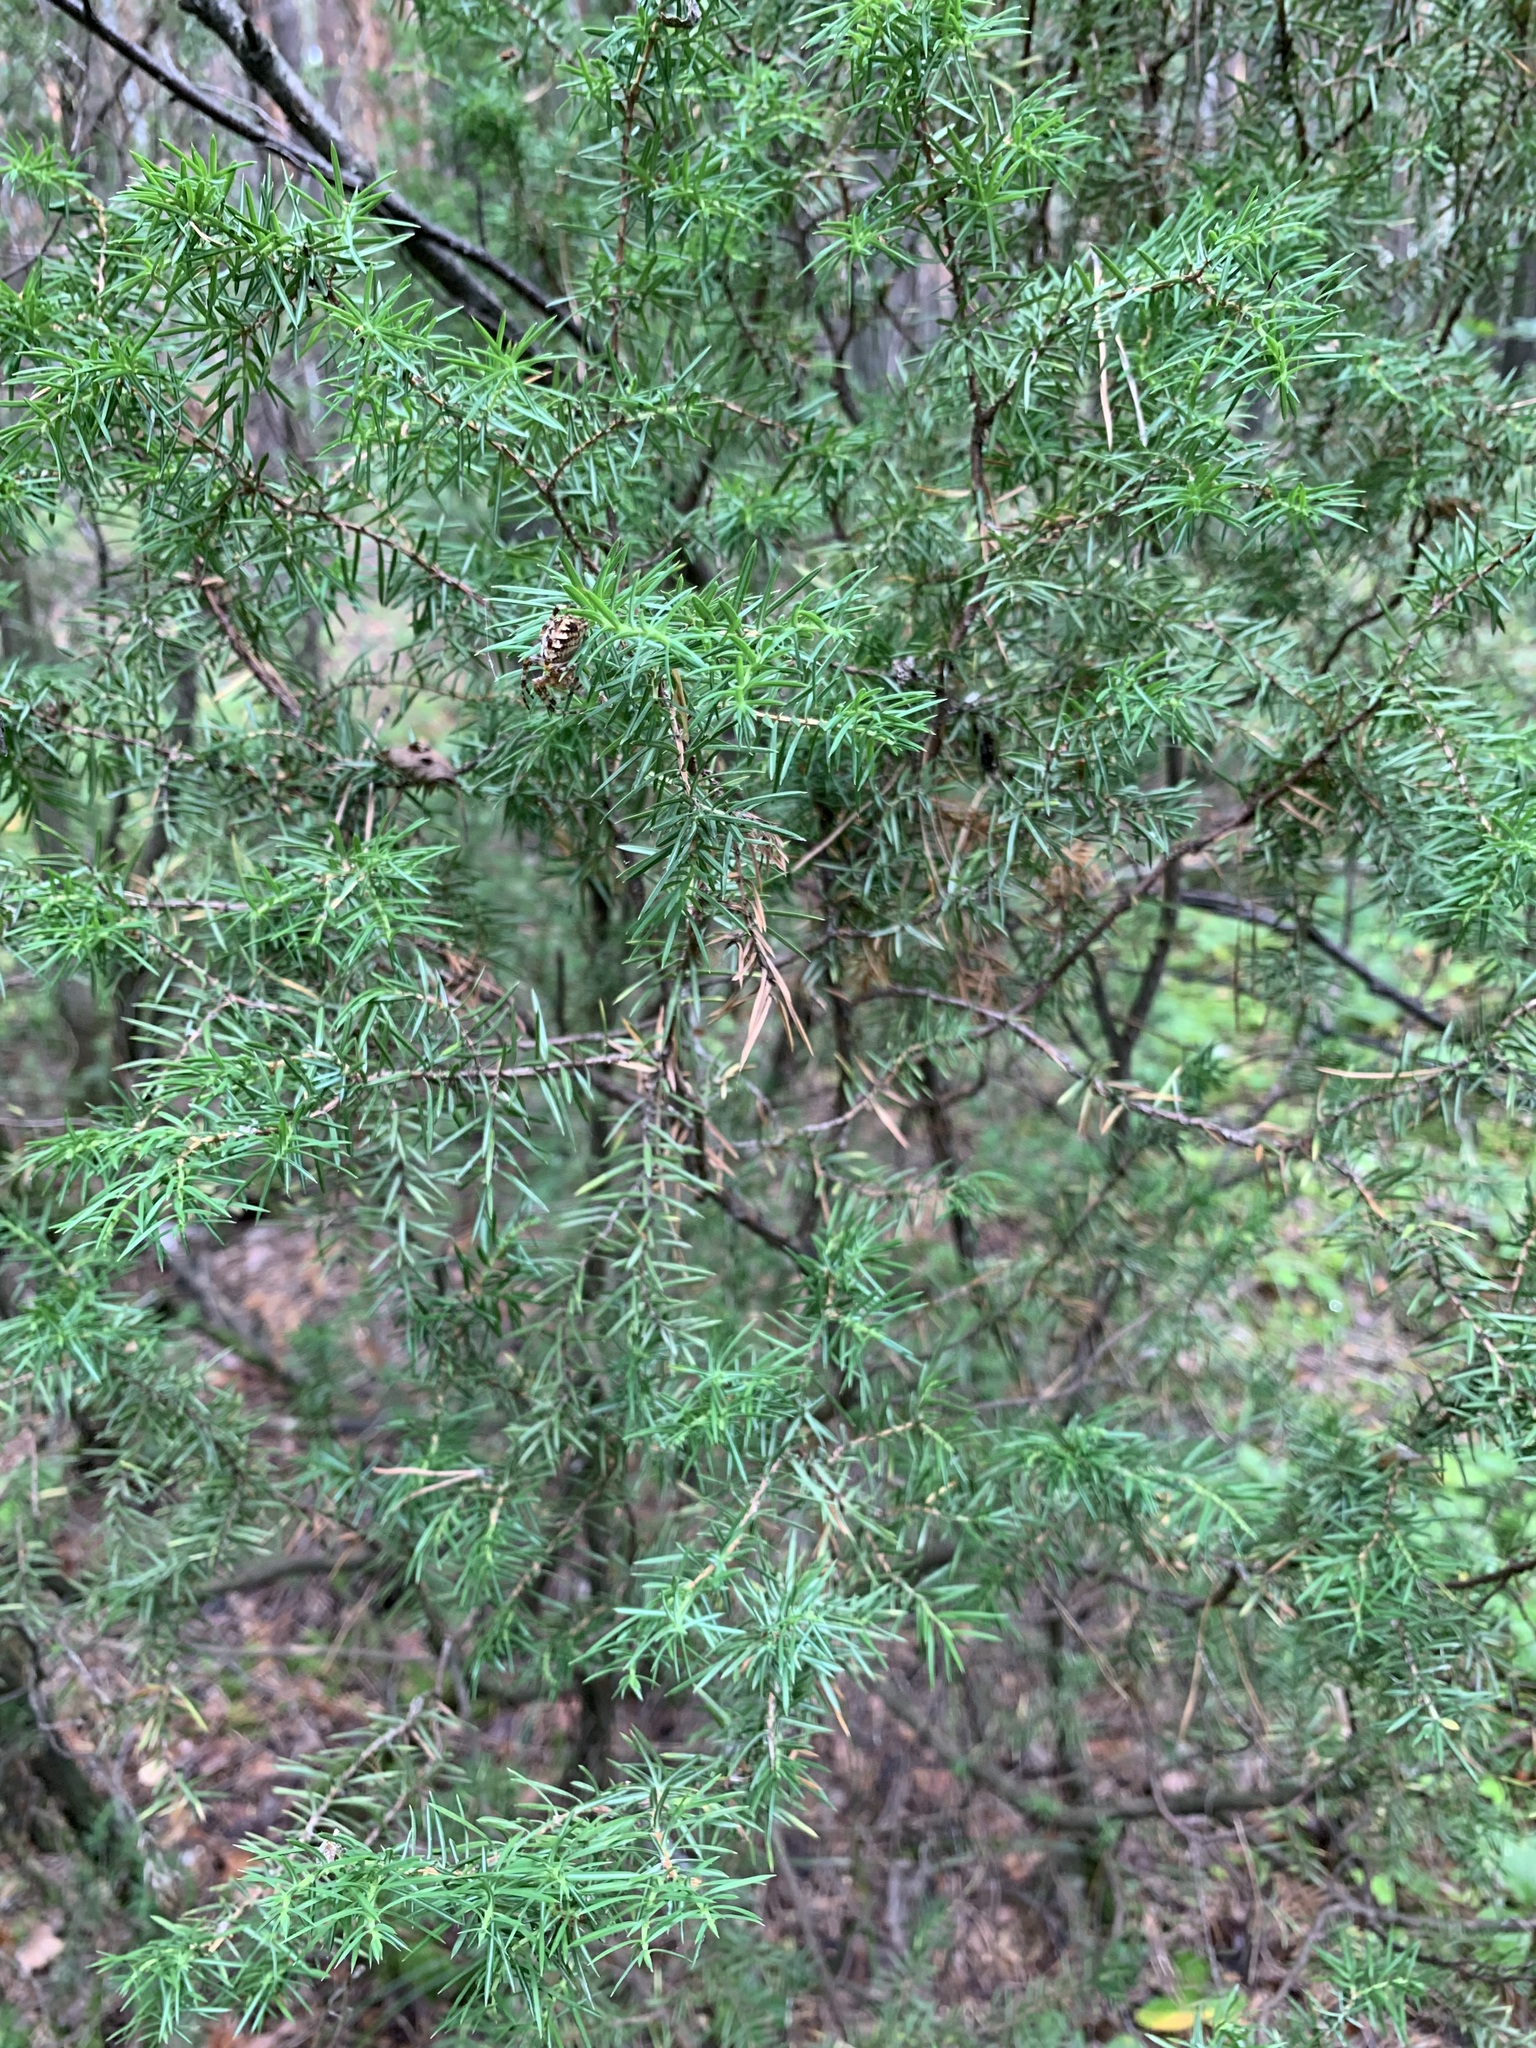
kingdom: Plantae
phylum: Tracheophyta
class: Pinopsida
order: Pinales
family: Cupressaceae
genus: Juniperus
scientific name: Juniperus communis
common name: Common juniper
